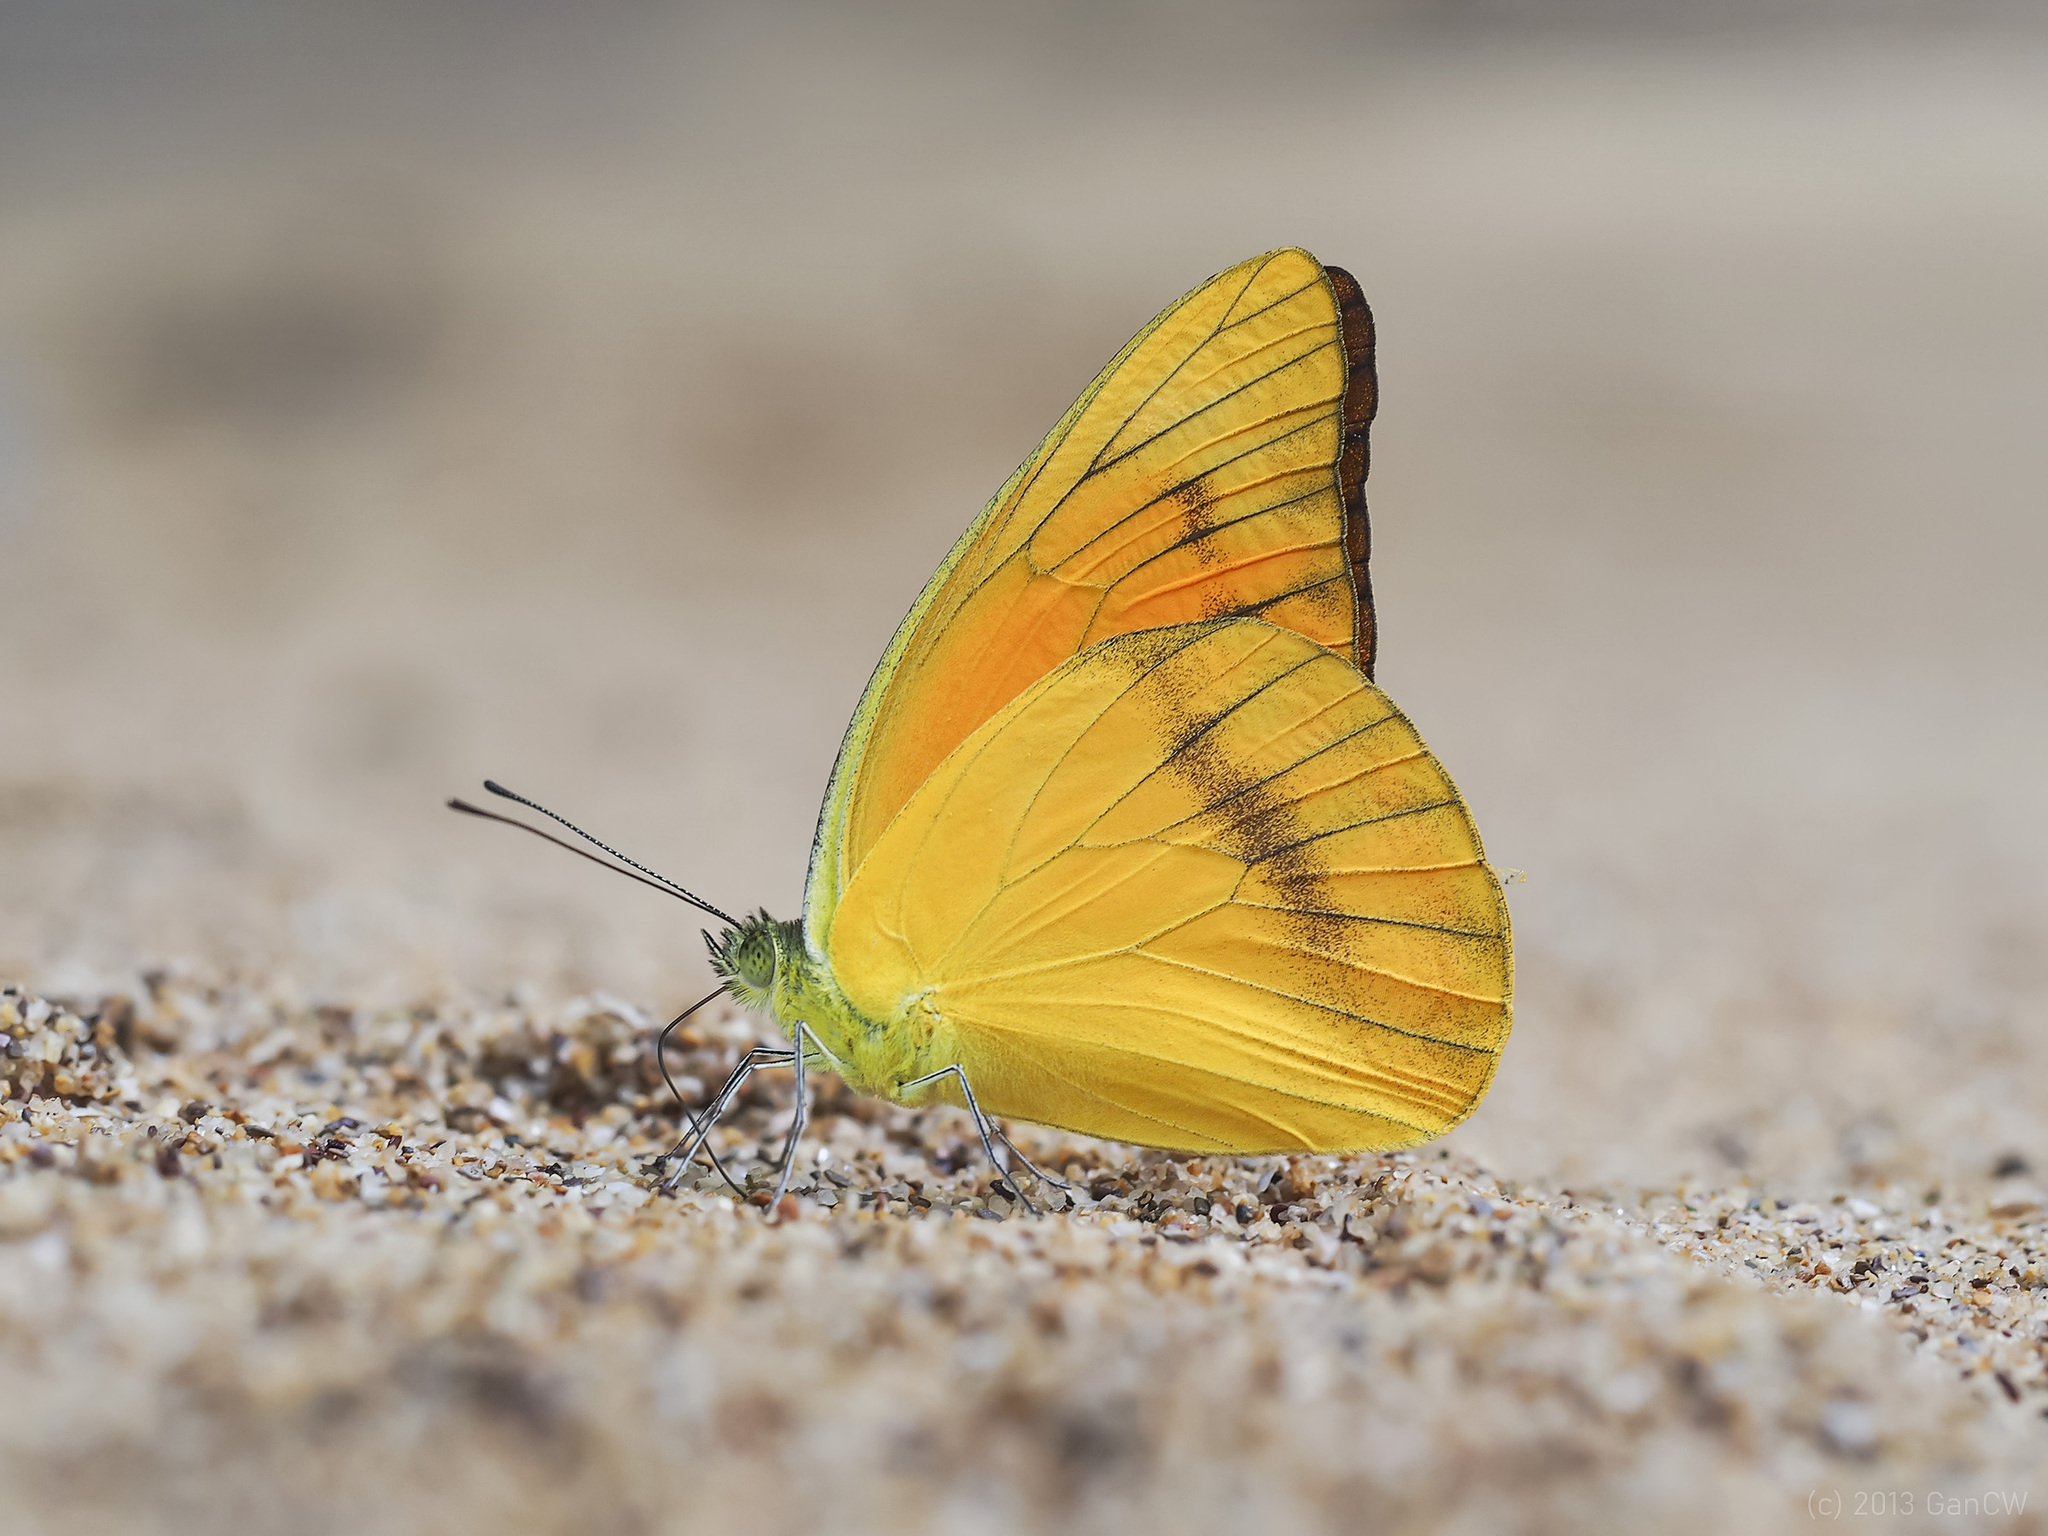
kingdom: Animalia
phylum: Arthropoda
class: Insecta
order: Lepidoptera
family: Pieridae
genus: Appias
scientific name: Appias nero
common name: Orange albatross
